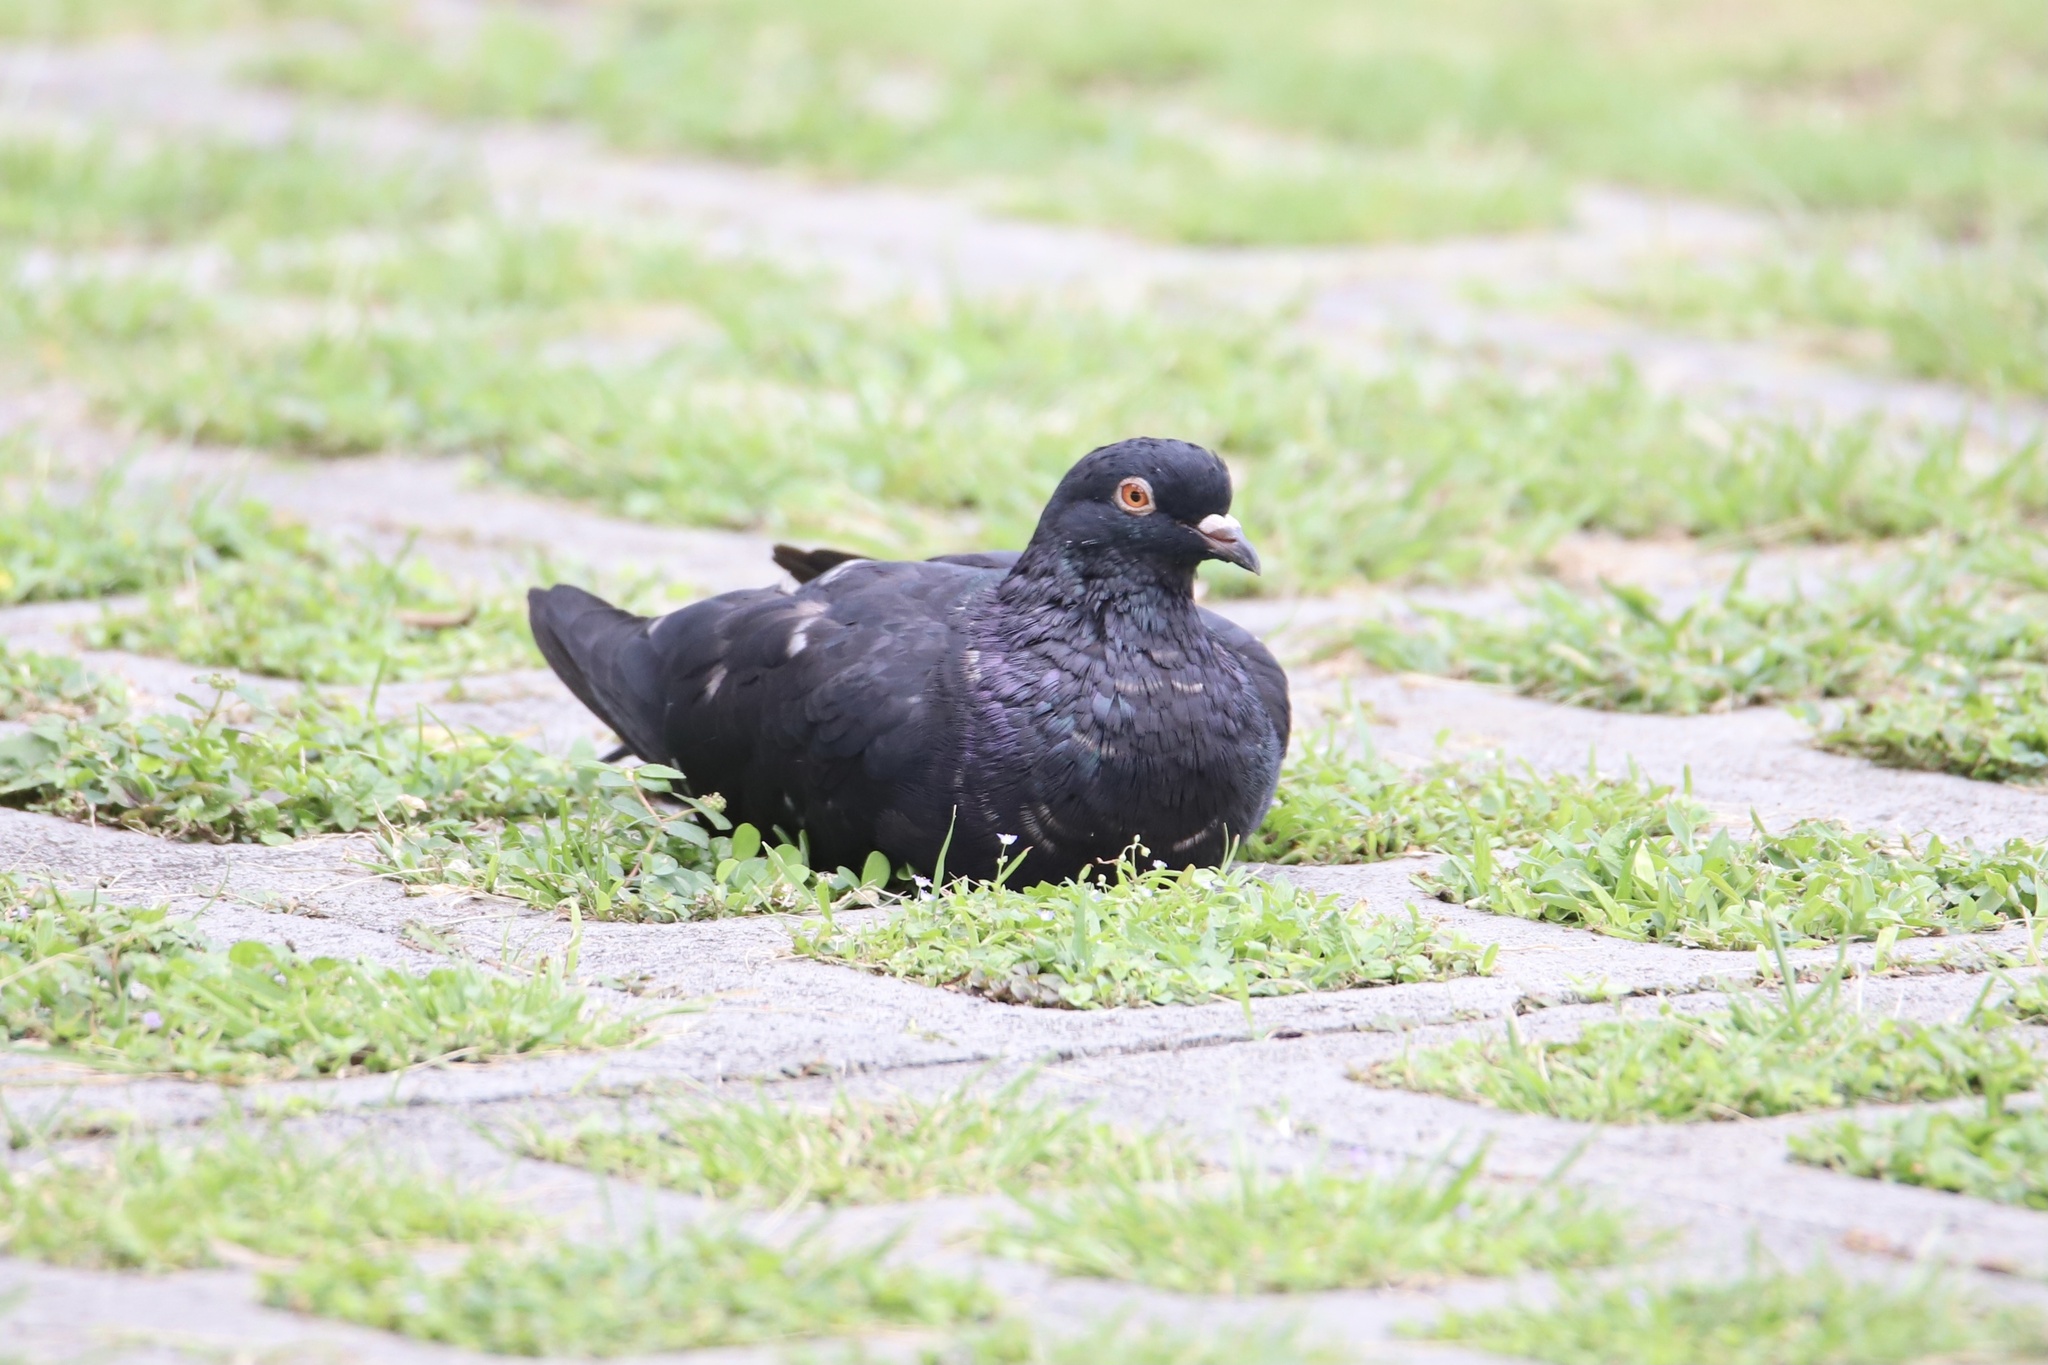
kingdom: Animalia
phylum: Chordata
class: Aves
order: Columbiformes
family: Columbidae
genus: Columba
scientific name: Columba livia
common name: Rock pigeon
